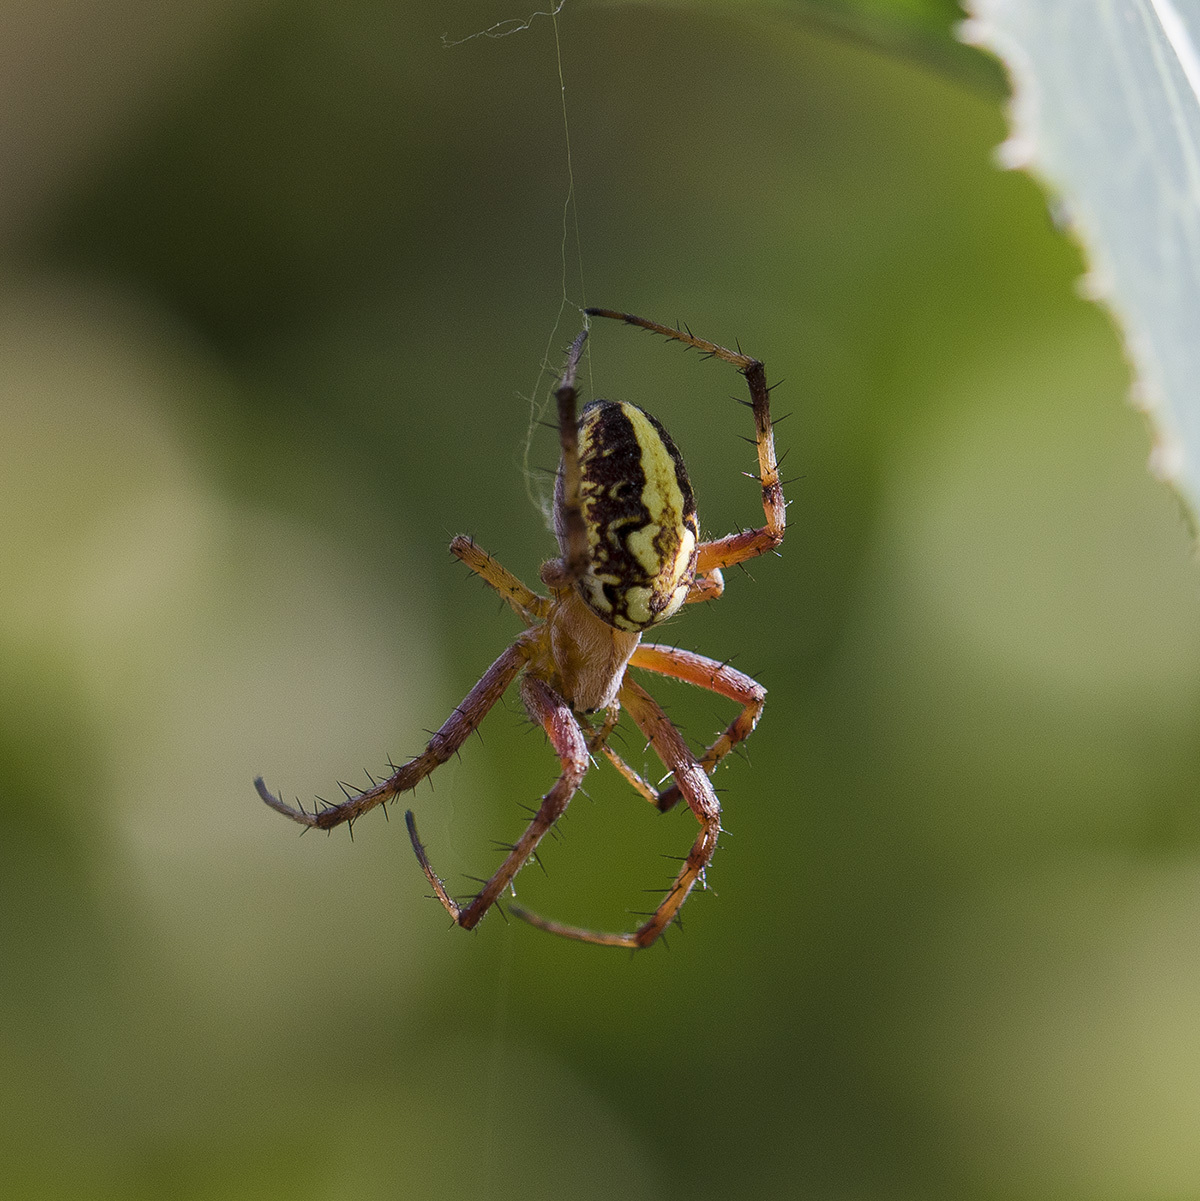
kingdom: Animalia
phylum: Arthropoda
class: Arachnida
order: Araneae
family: Araneidae
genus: Neoscona
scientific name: Neoscona adianta
